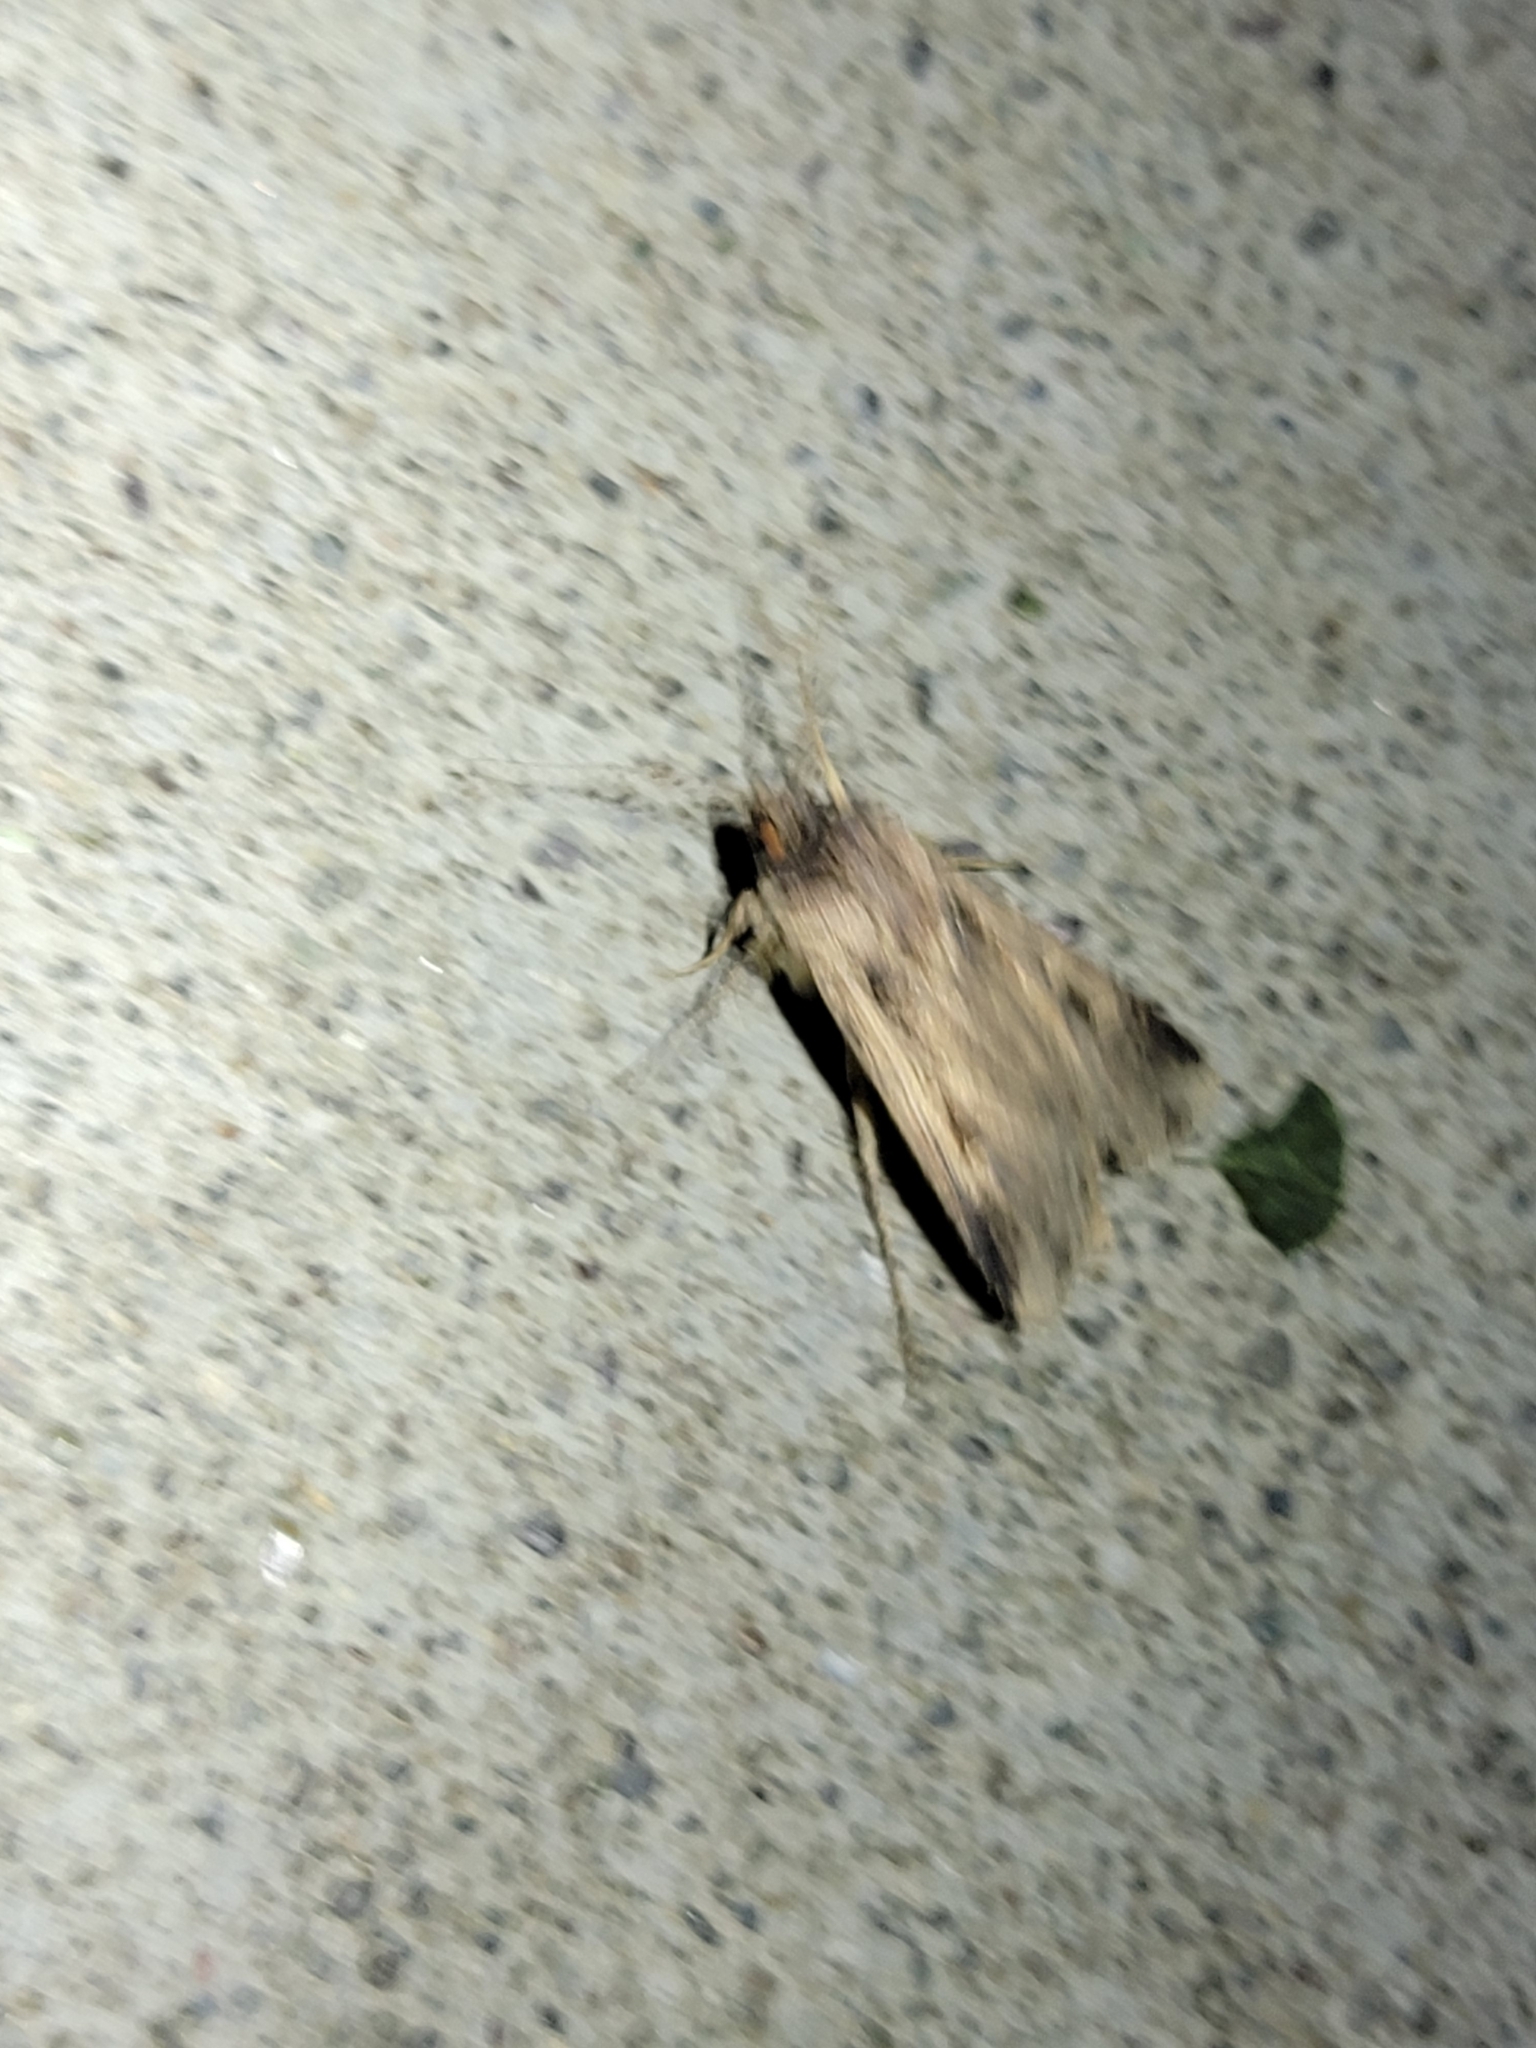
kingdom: Animalia
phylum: Arthropoda
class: Insecta
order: Lepidoptera
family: Noctuidae
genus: Feltia
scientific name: Feltia subterranea
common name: Granulate cutworm
